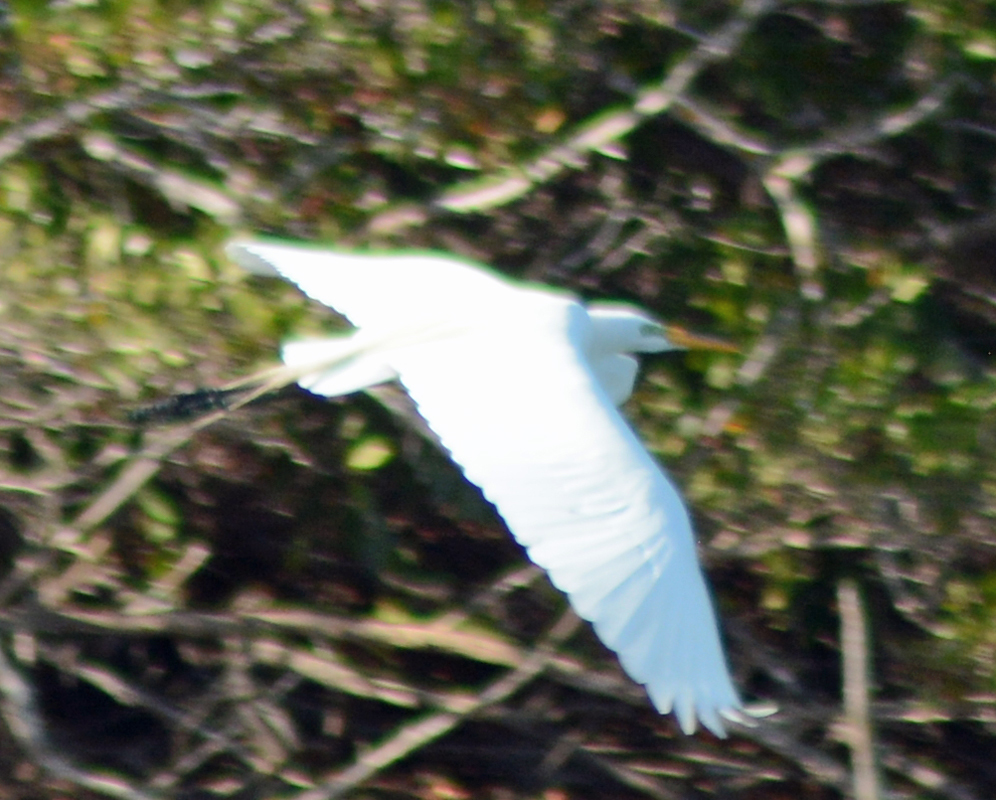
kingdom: Animalia
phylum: Chordata
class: Aves
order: Pelecaniformes
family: Ardeidae
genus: Ardea
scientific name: Ardea alba
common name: Great egret
